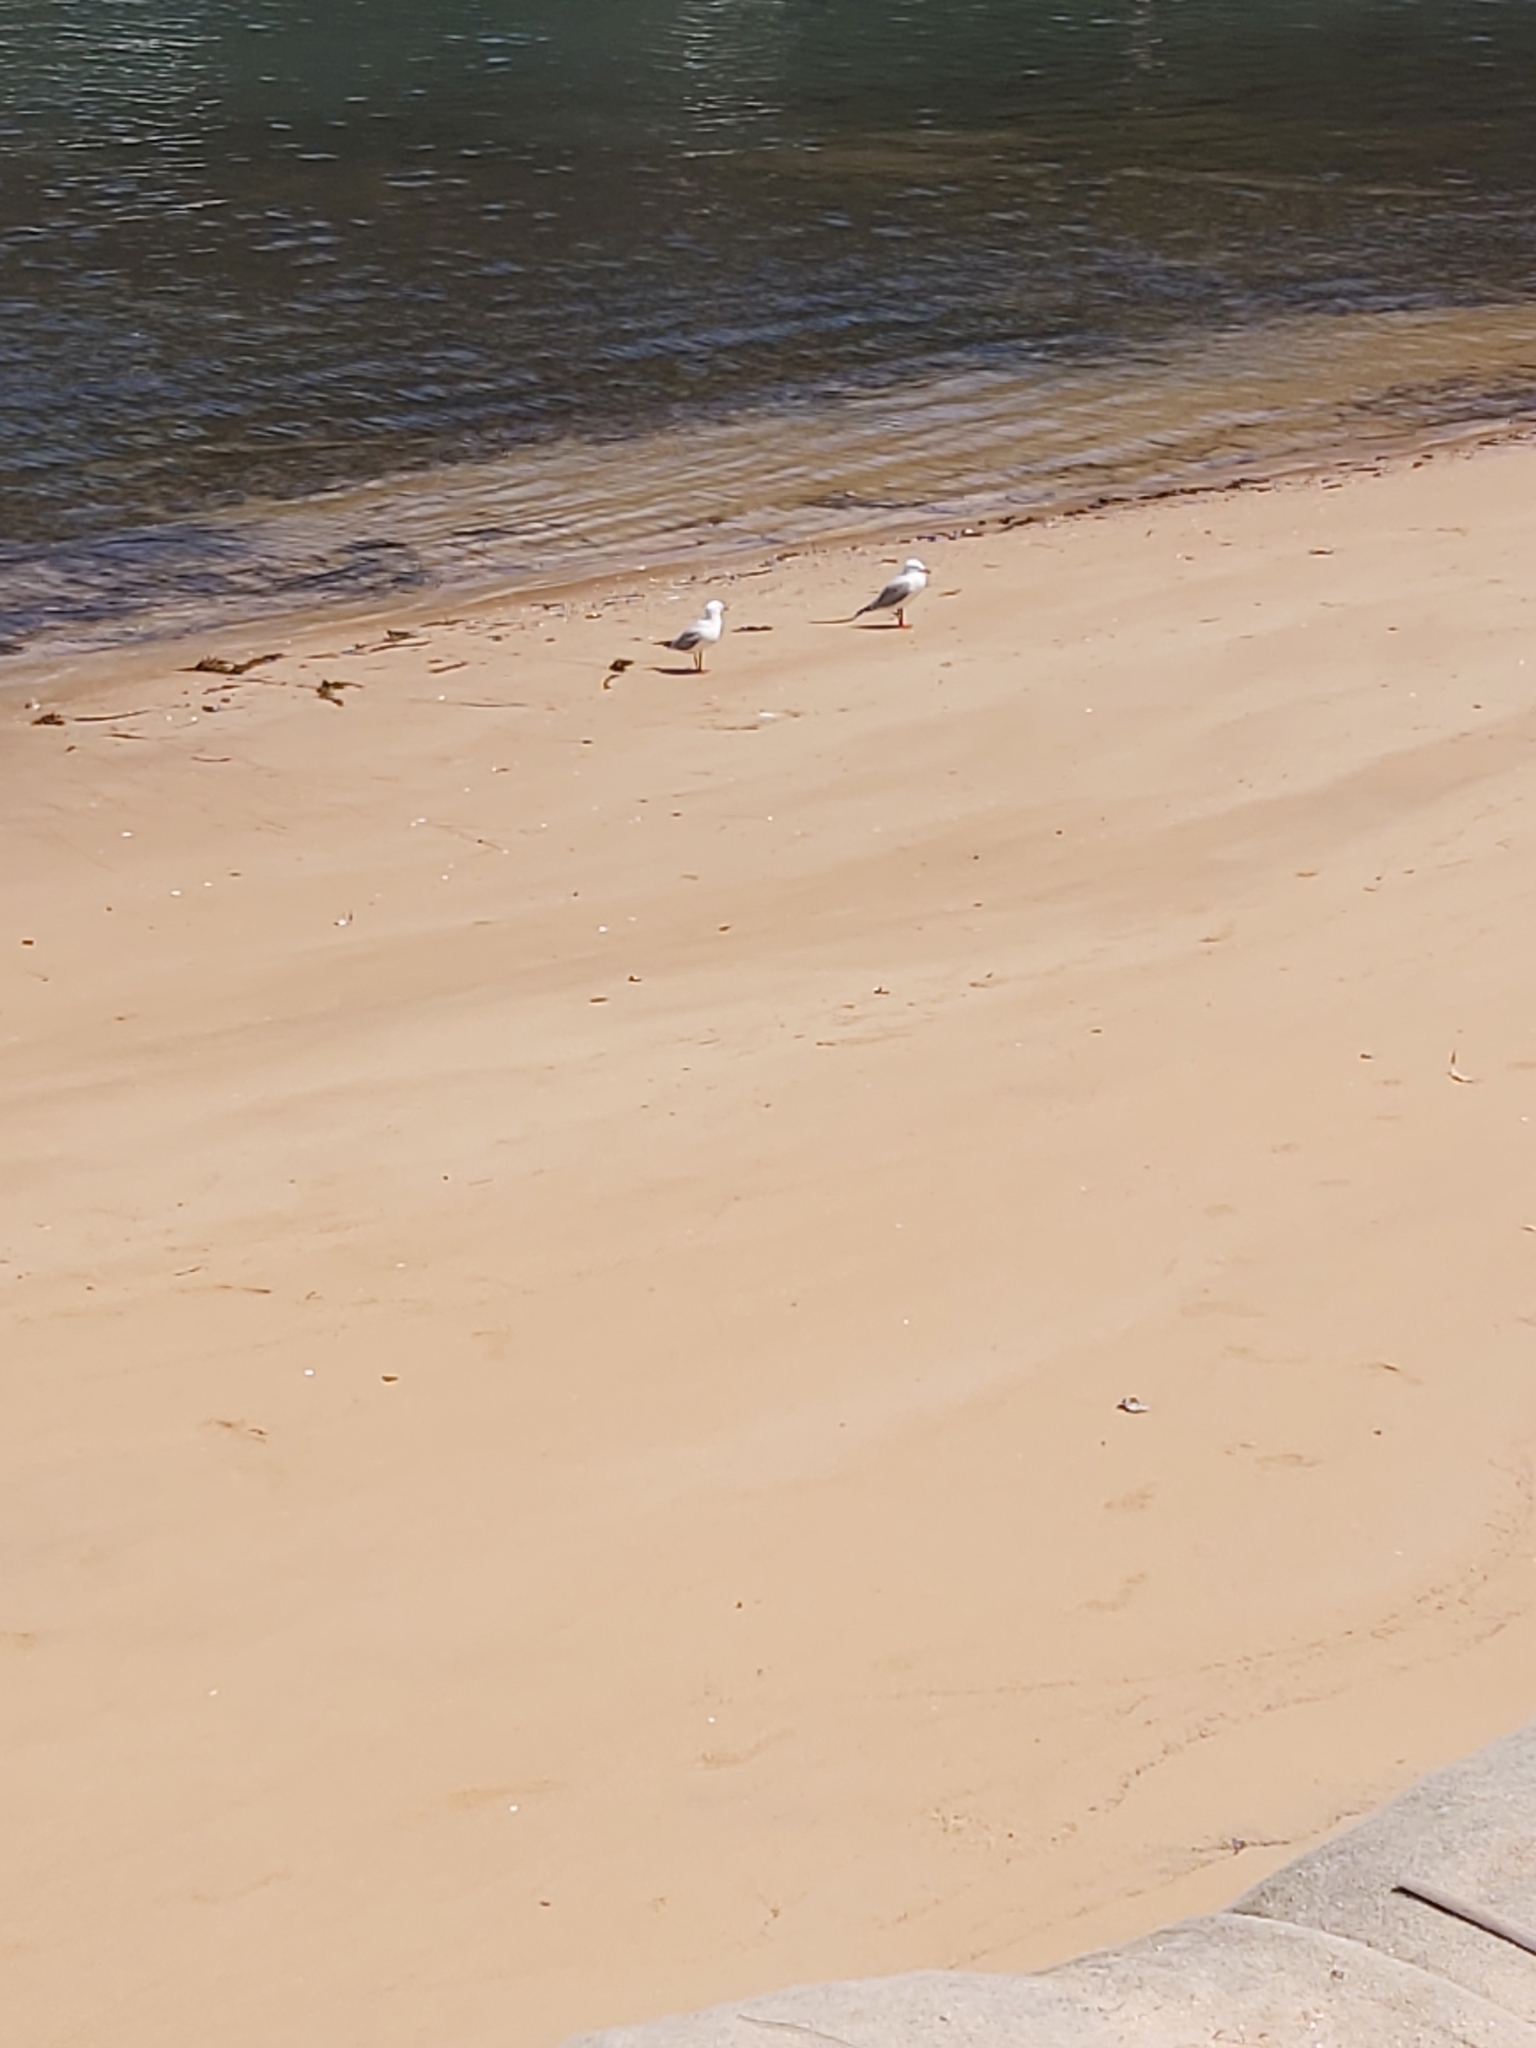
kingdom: Animalia
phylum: Chordata
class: Aves
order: Charadriiformes
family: Laridae
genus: Chroicocephalus
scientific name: Chroicocephalus novaehollandiae
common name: Silver gull
